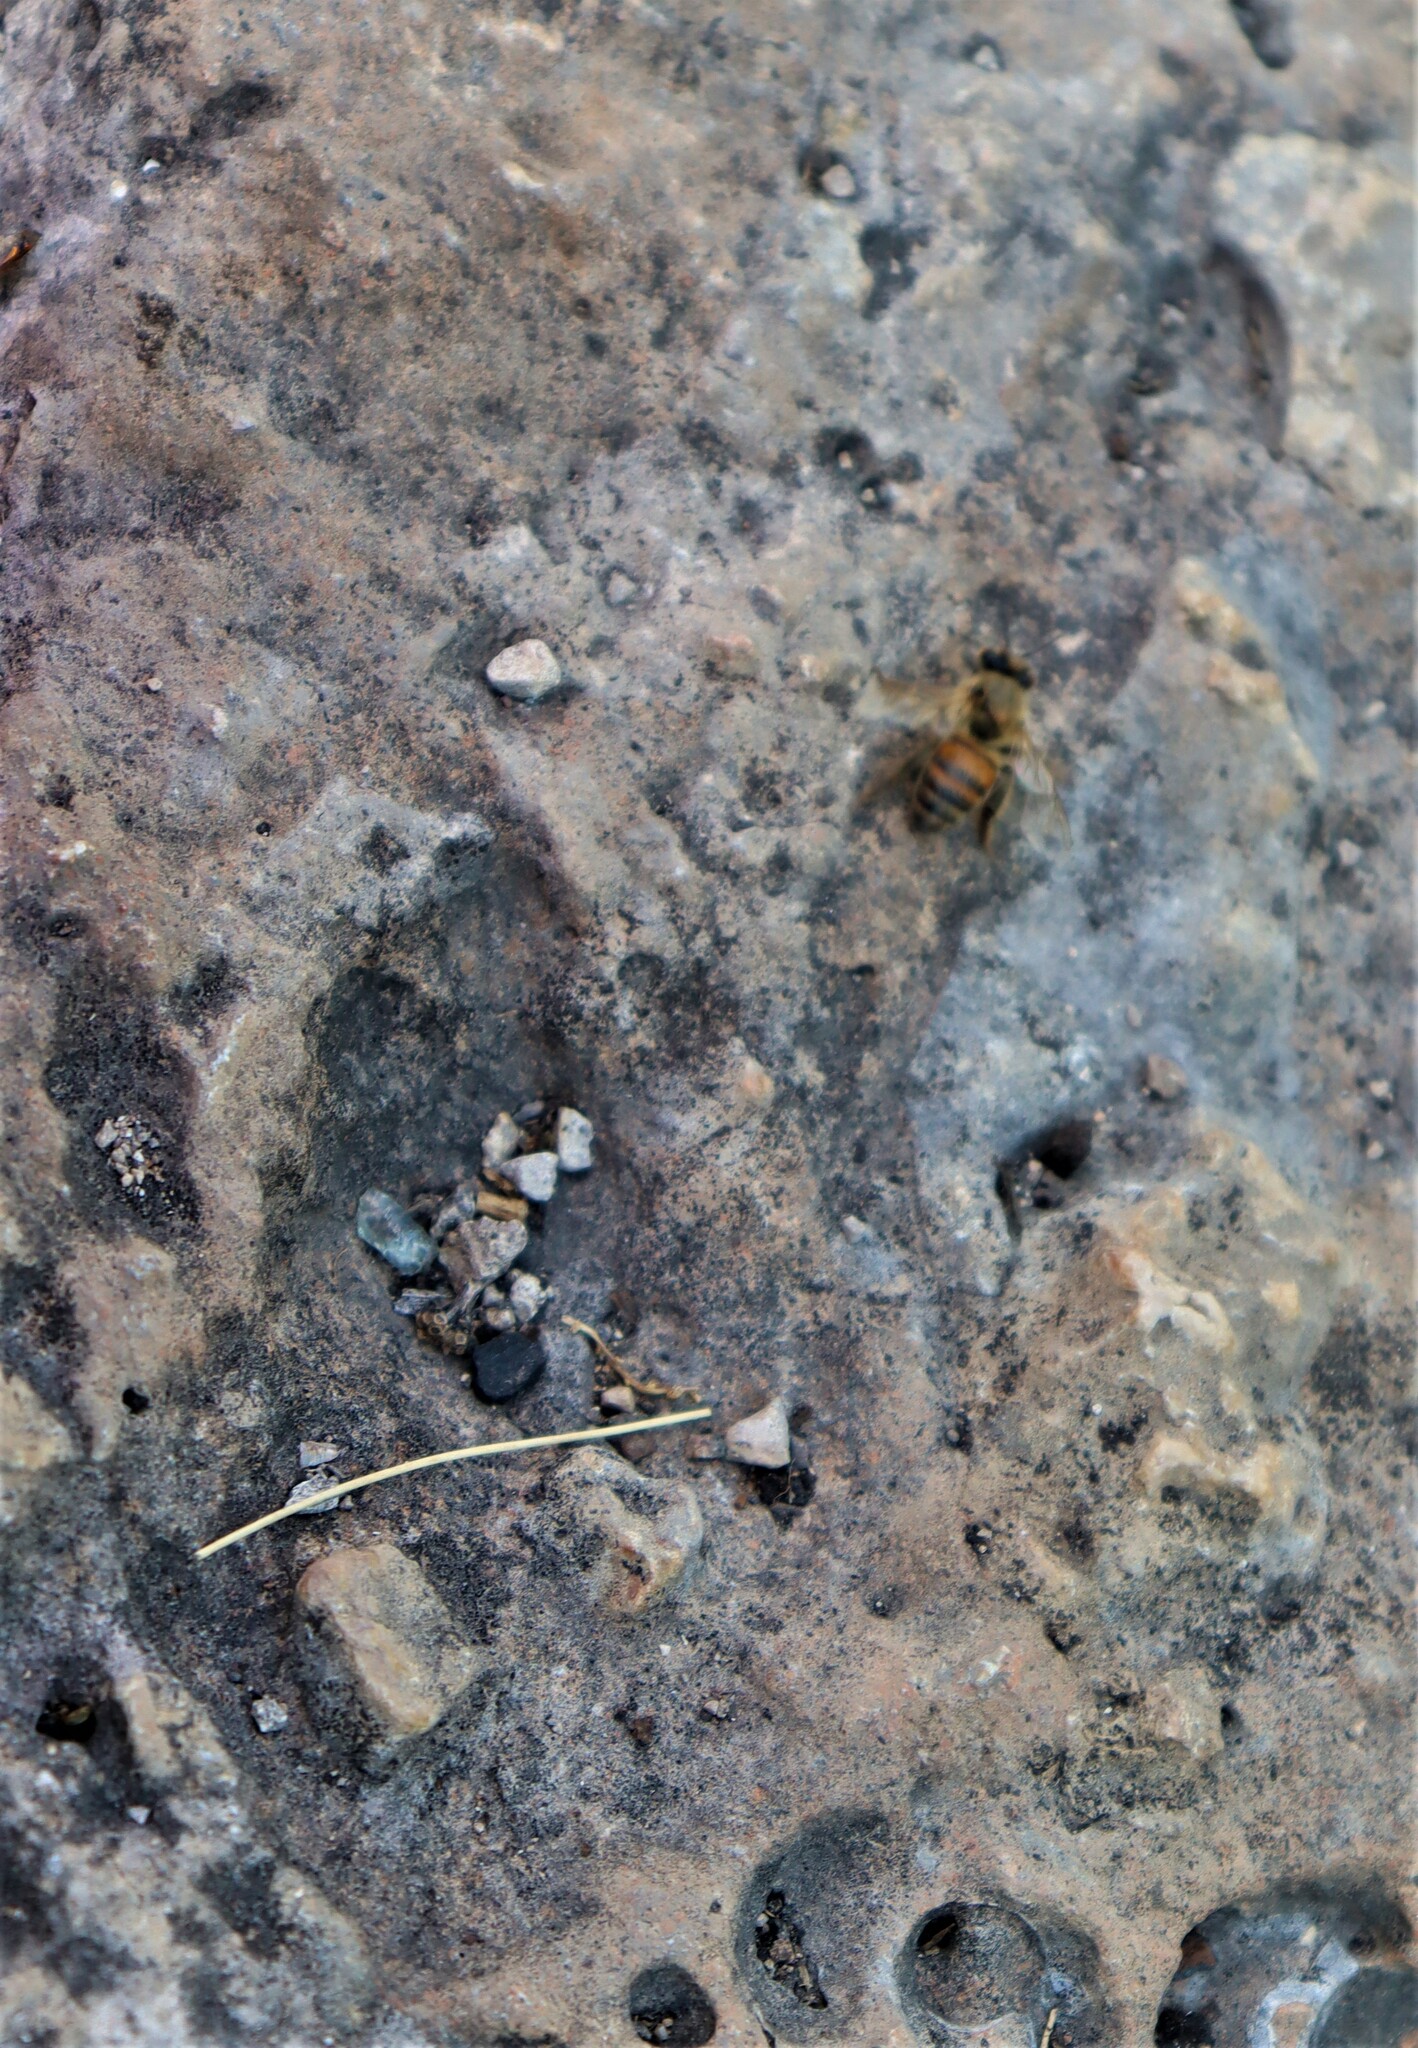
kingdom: Animalia
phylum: Arthropoda
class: Insecta
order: Hymenoptera
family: Apidae
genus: Apis
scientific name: Apis mellifera
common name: Honey bee
